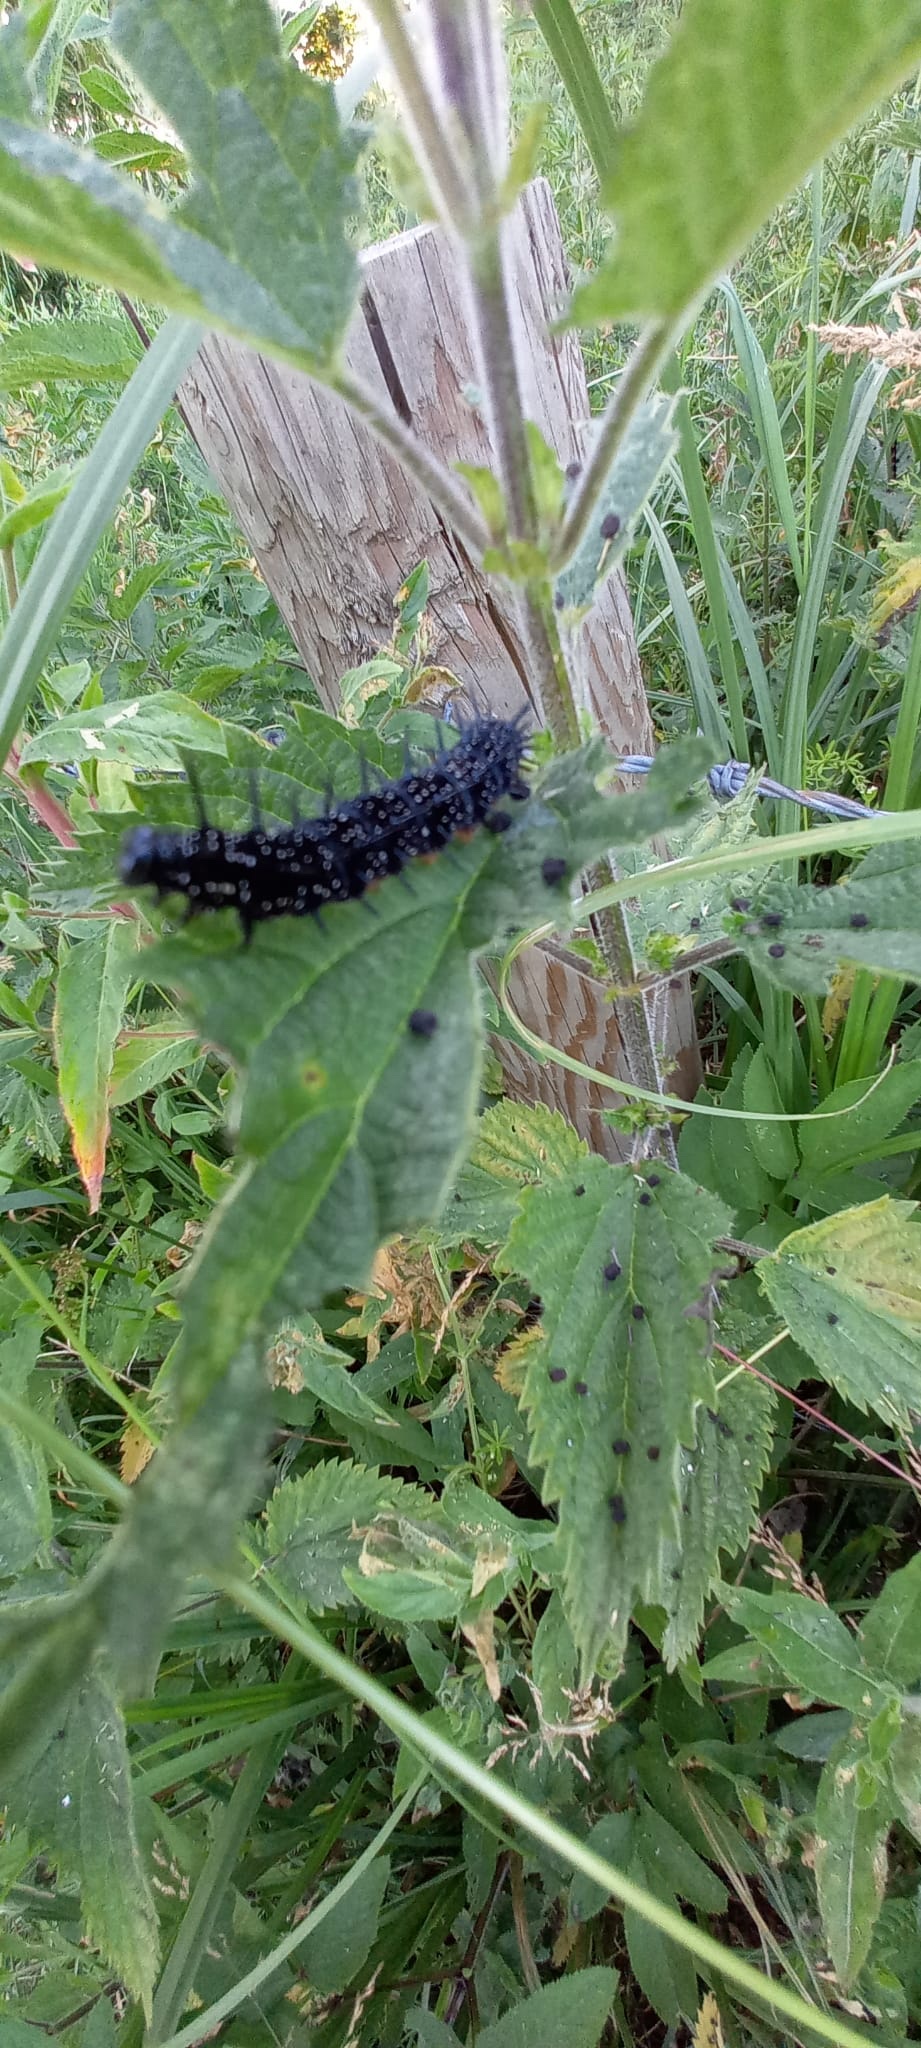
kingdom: Animalia
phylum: Arthropoda
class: Insecta
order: Lepidoptera
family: Nymphalidae
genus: Aglais
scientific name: Aglais io
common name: Peacock
